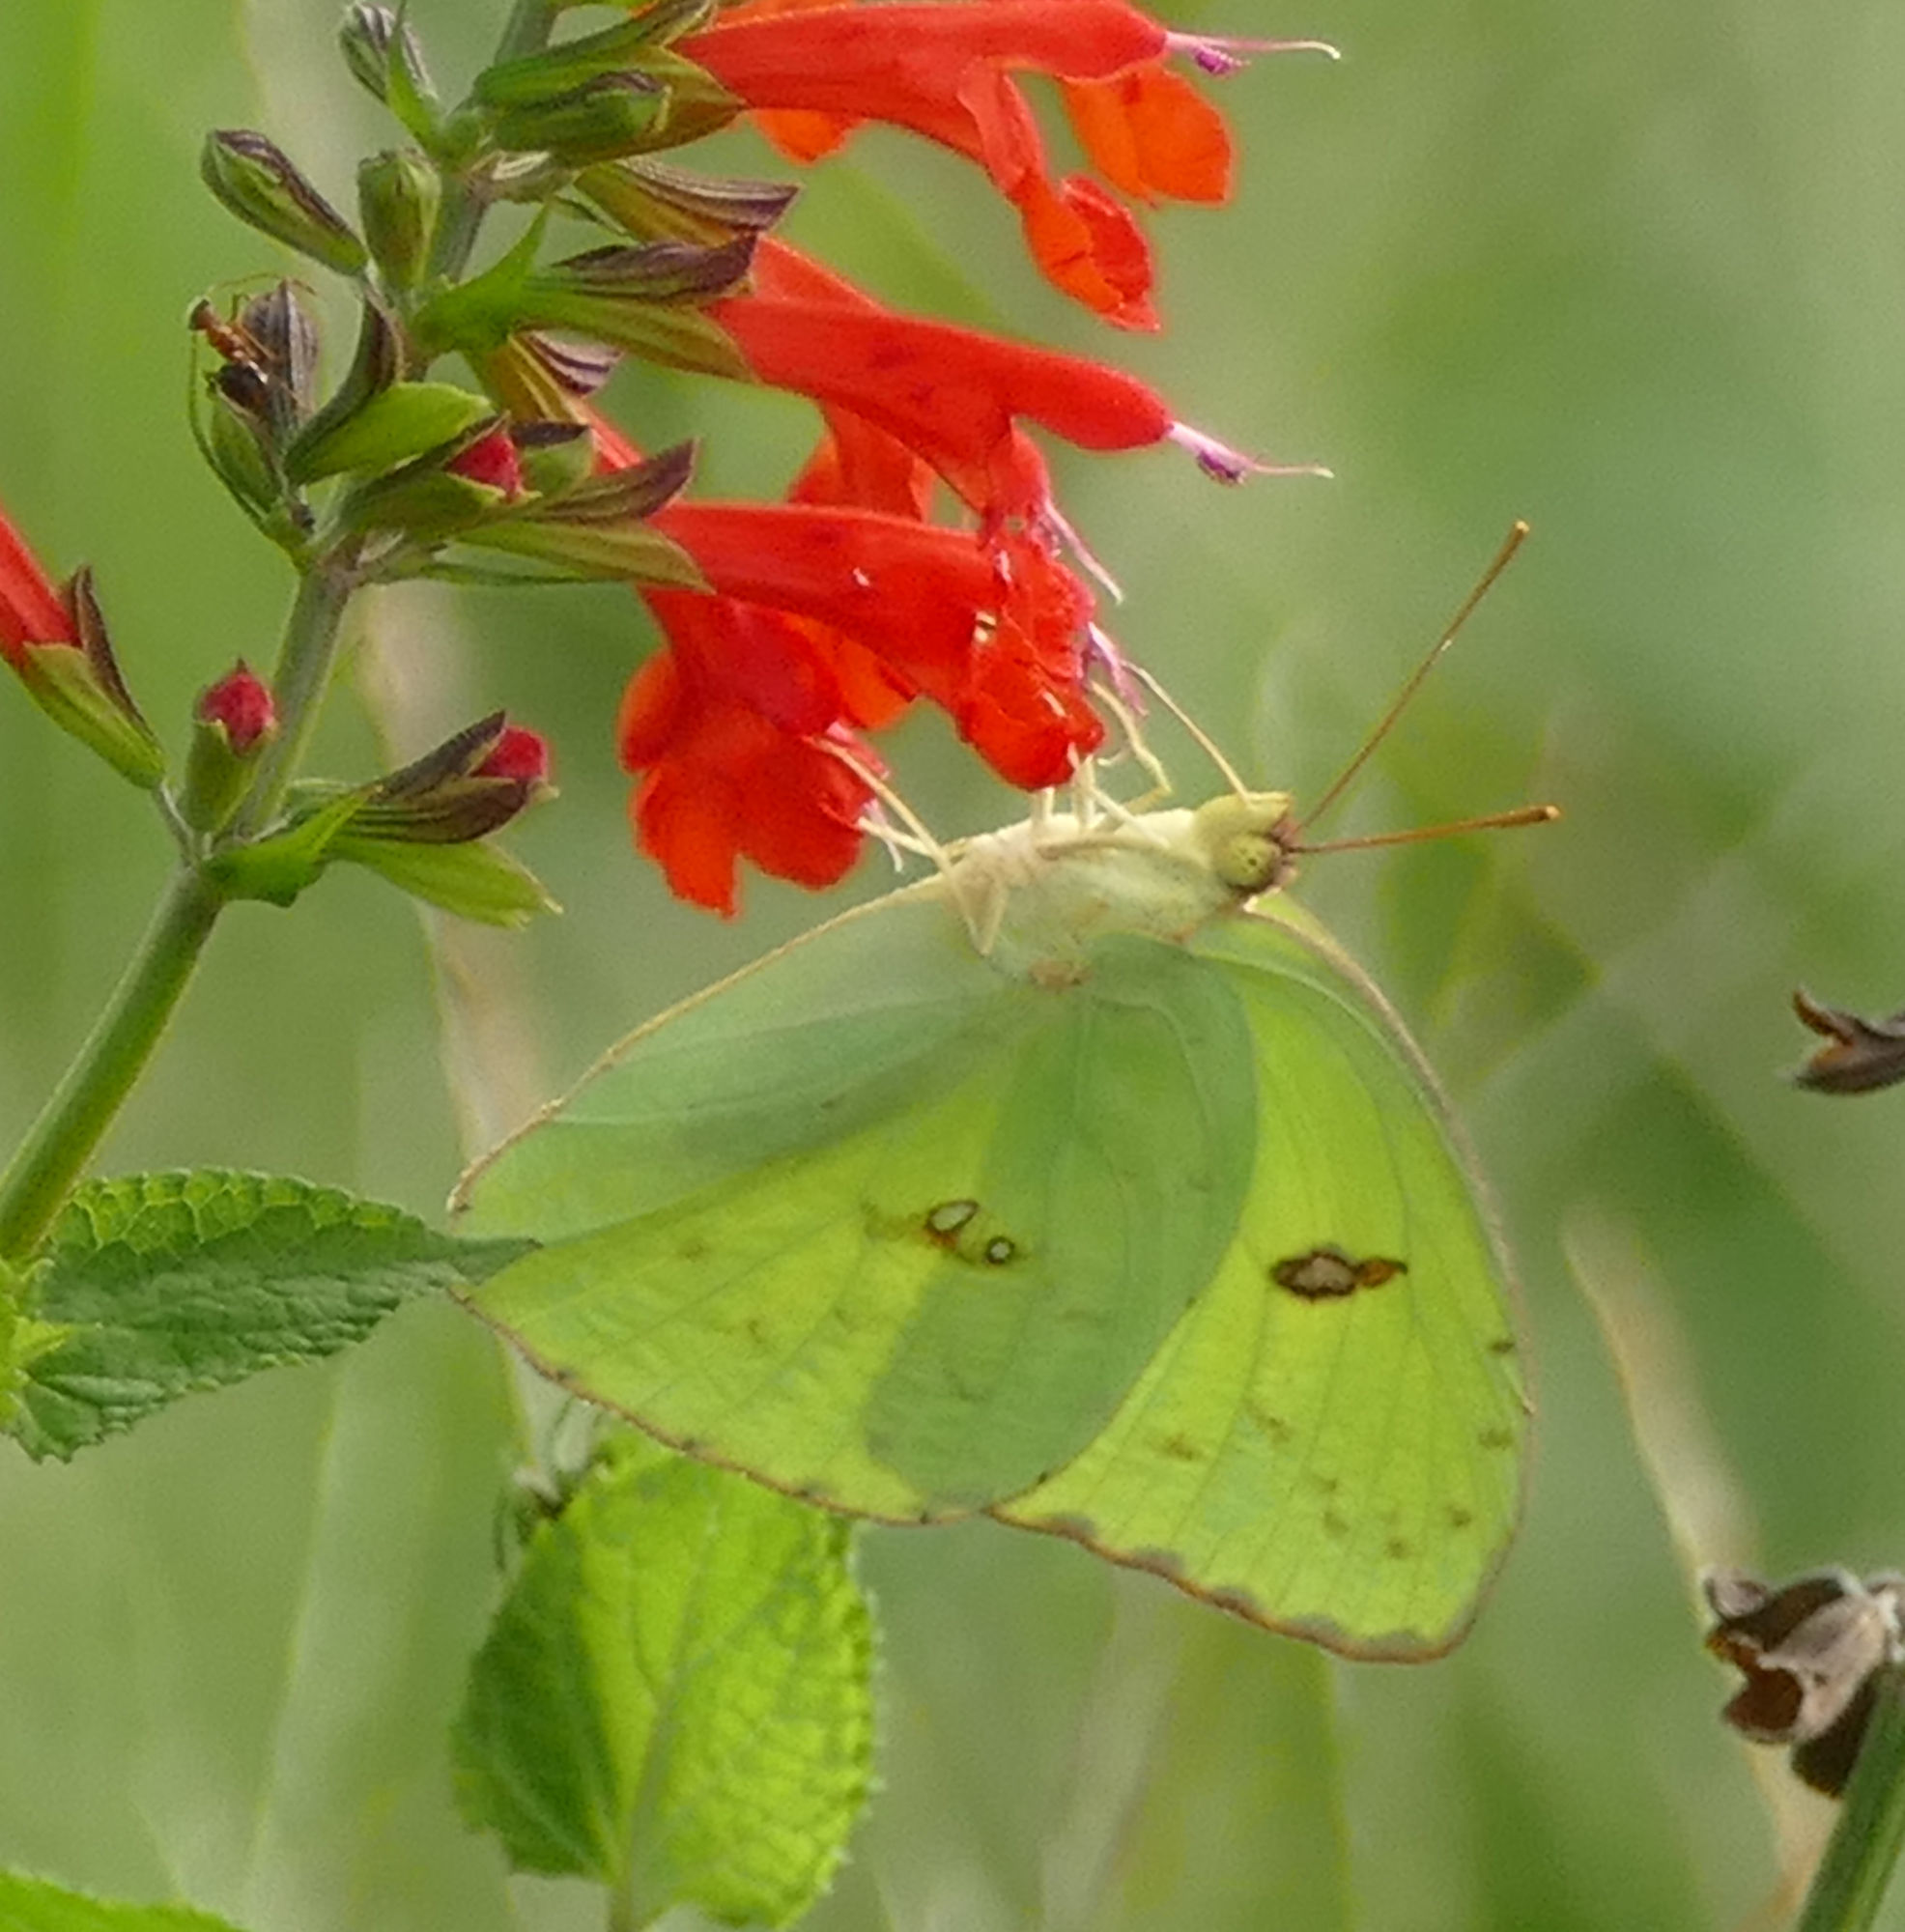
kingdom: Animalia
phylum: Arthropoda
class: Insecta
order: Lepidoptera
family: Pieridae
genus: Phoebis
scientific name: Phoebis sennae
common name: Cloudless sulphur
